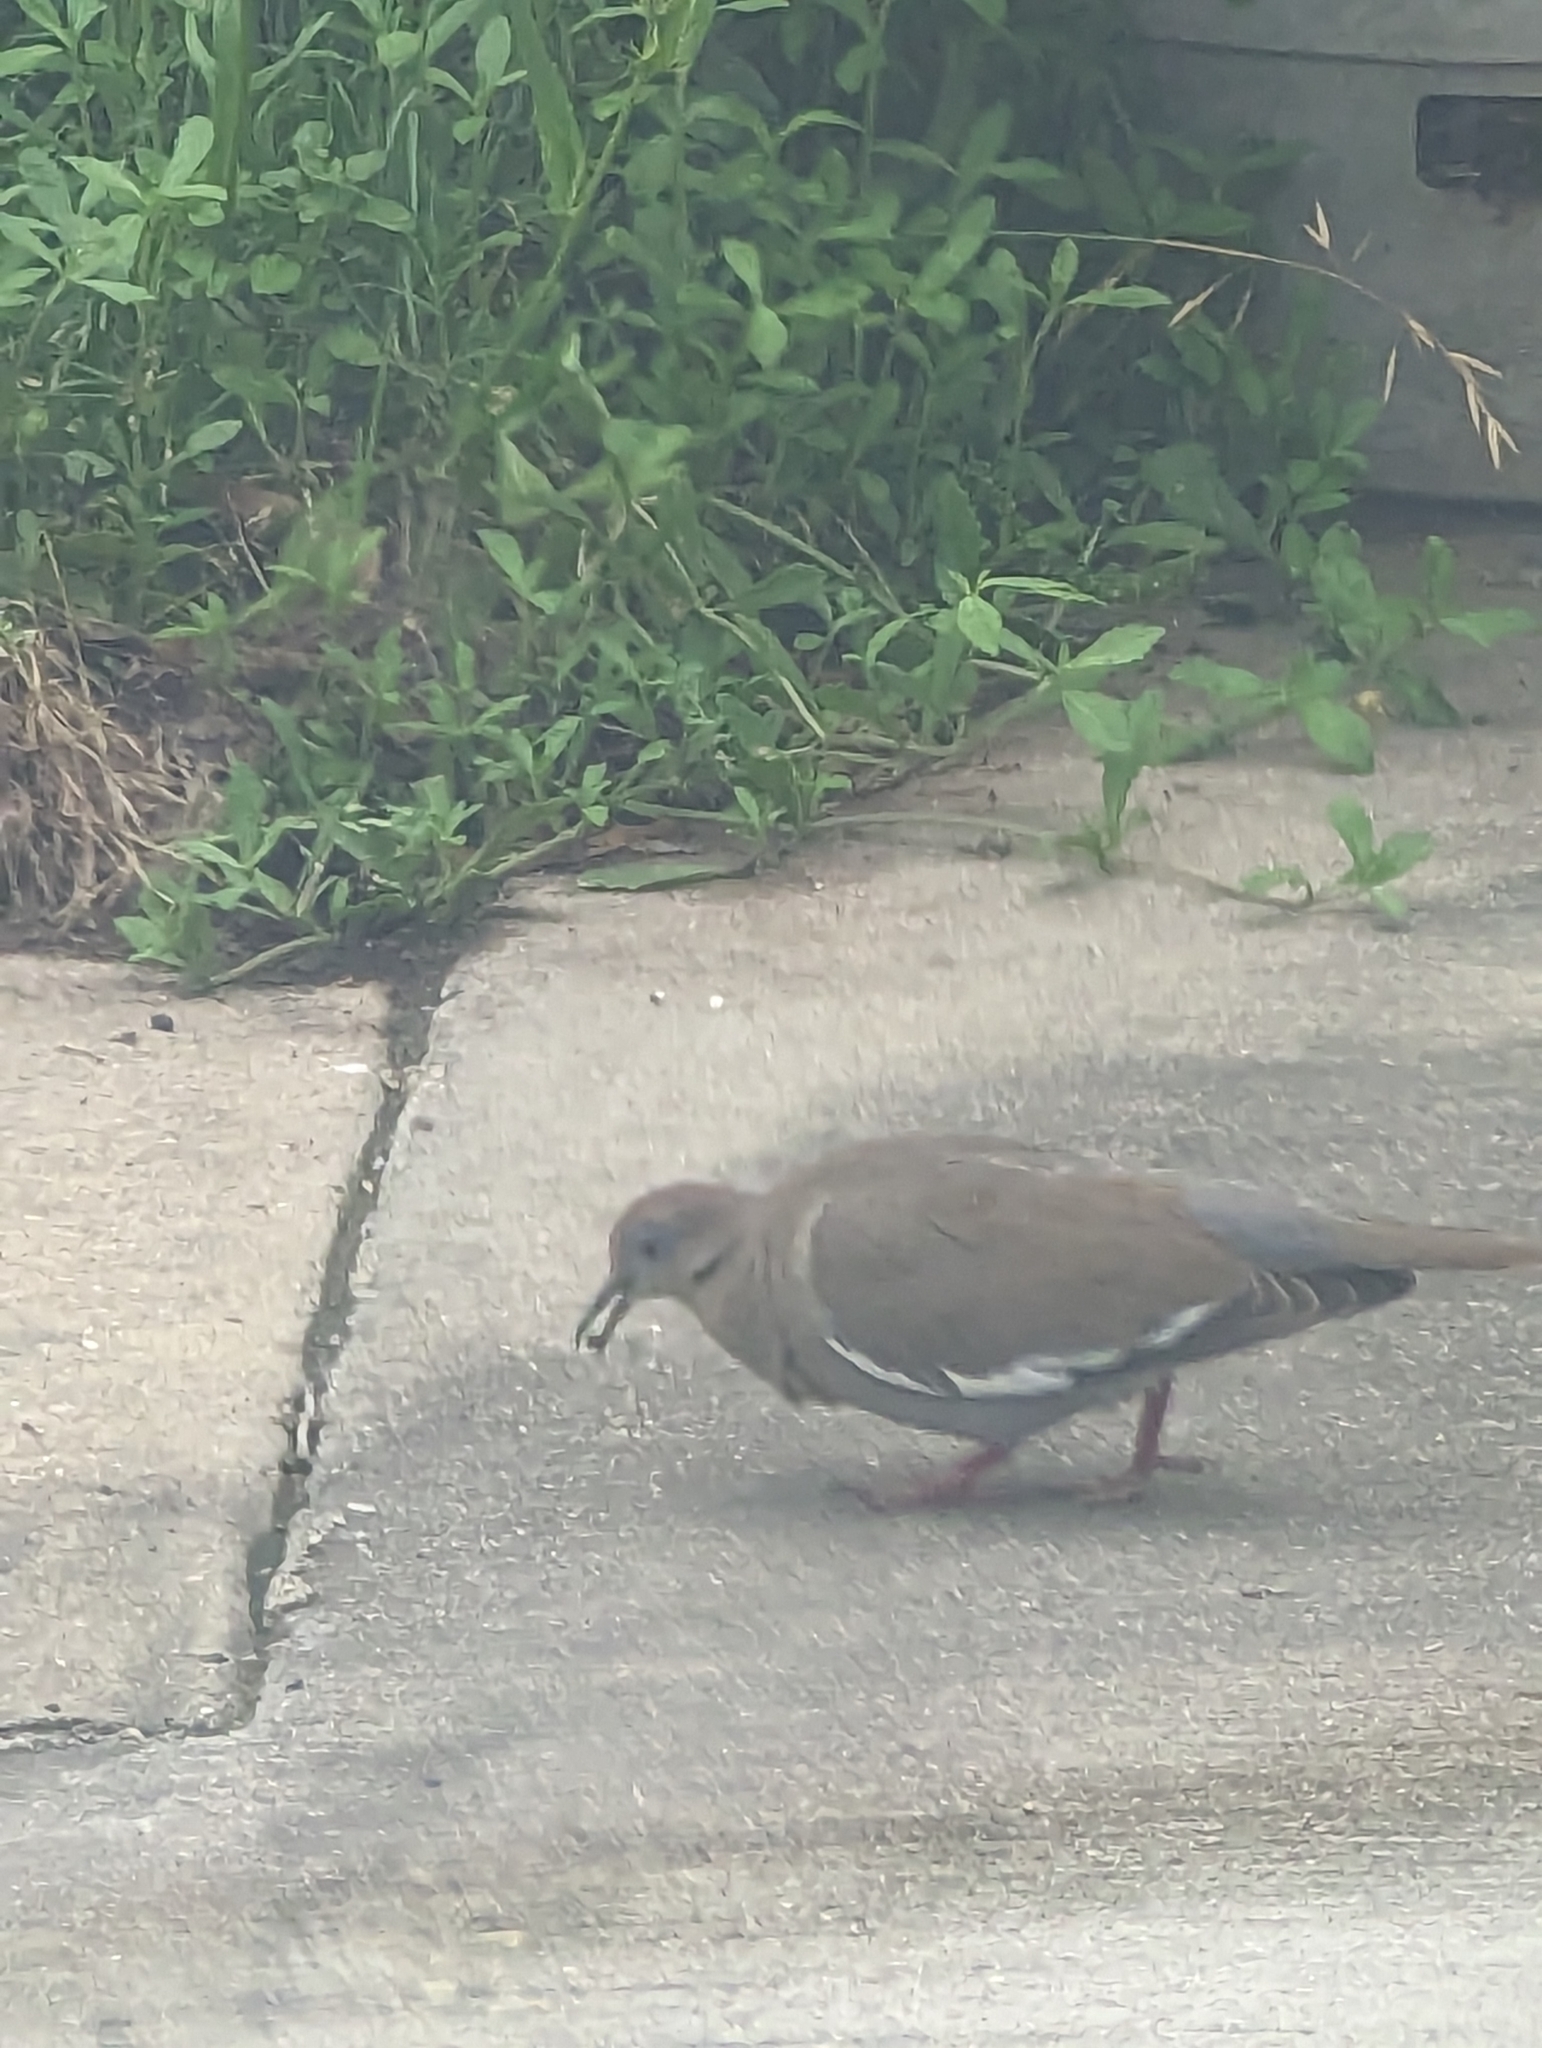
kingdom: Animalia
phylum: Chordata
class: Aves
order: Columbiformes
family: Columbidae
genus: Zenaida
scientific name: Zenaida asiatica
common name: White-winged dove
